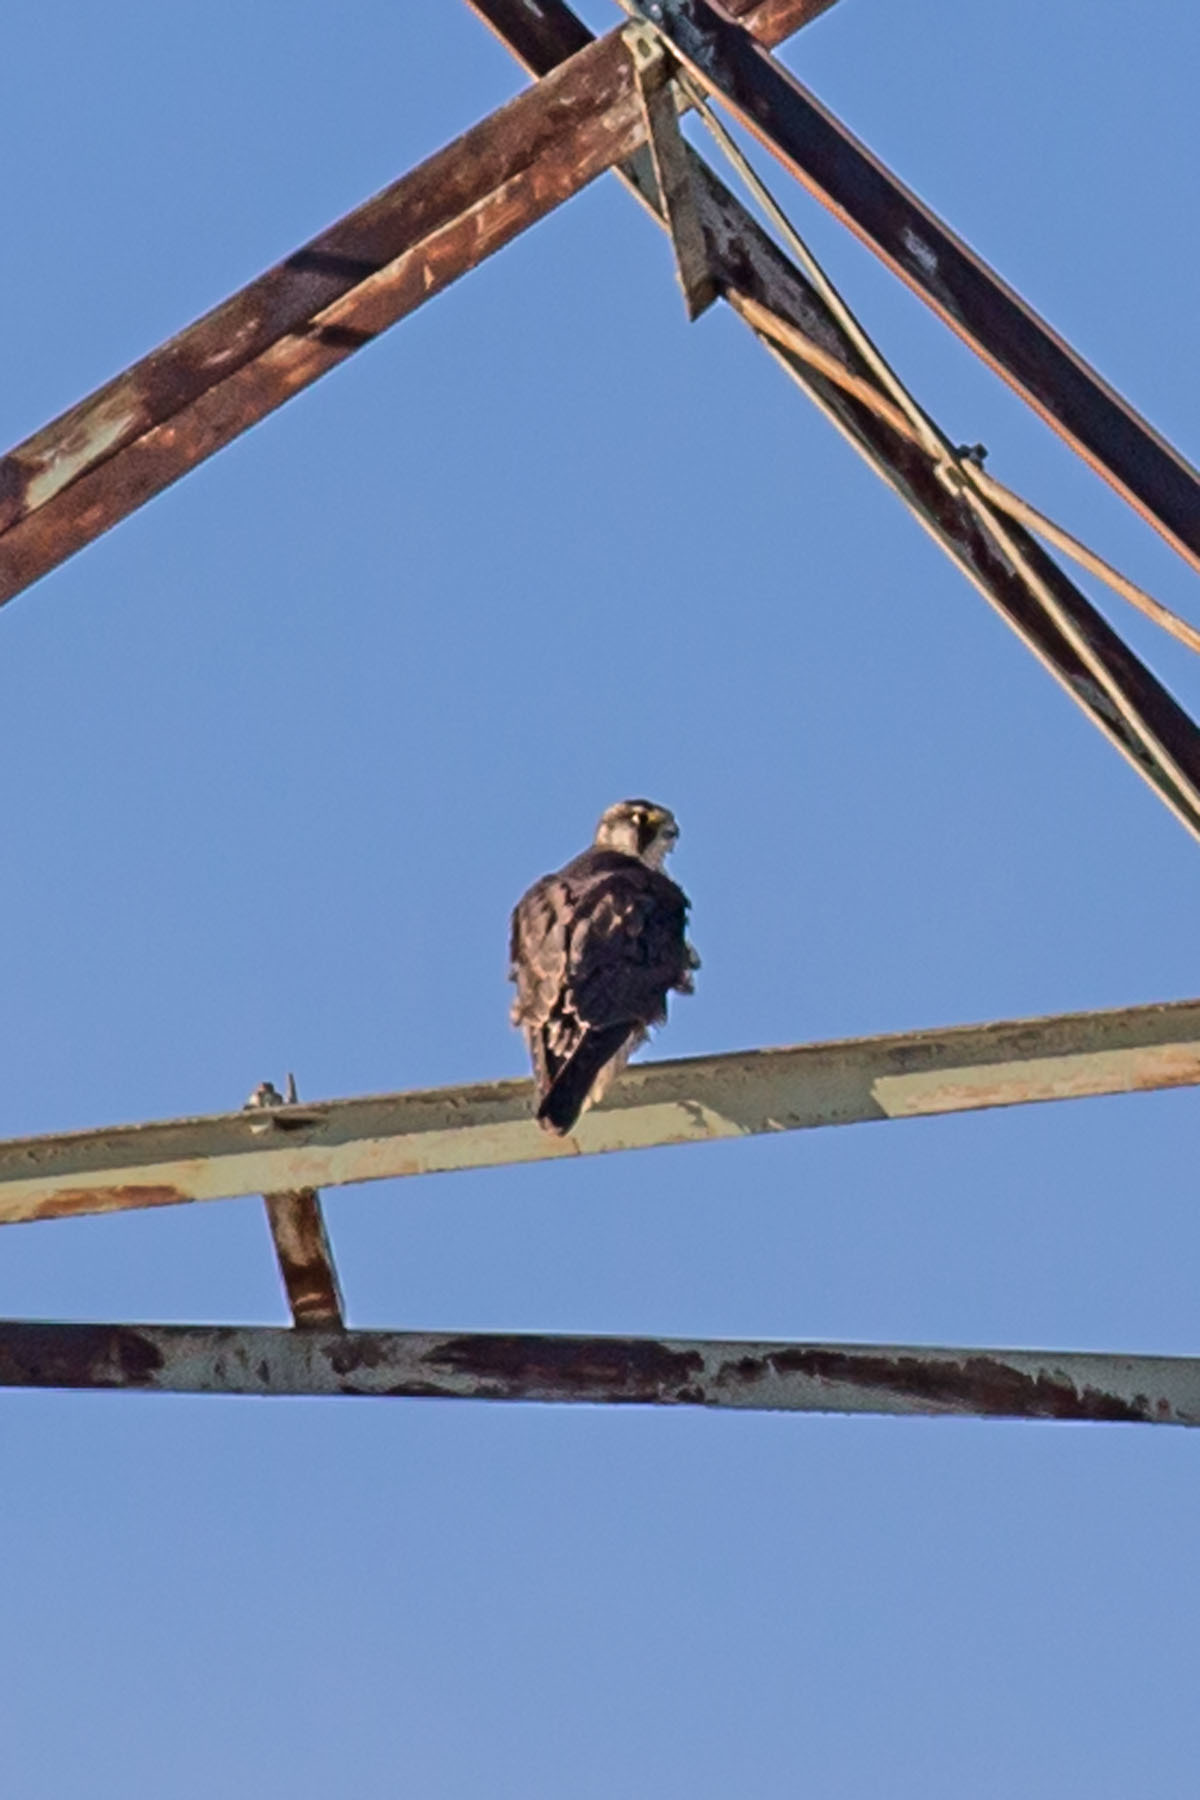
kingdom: Animalia
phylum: Chordata
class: Aves
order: Falconiformes
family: Falconidae
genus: Falco
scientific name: Falco peregrinus
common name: Peregrine falcon
